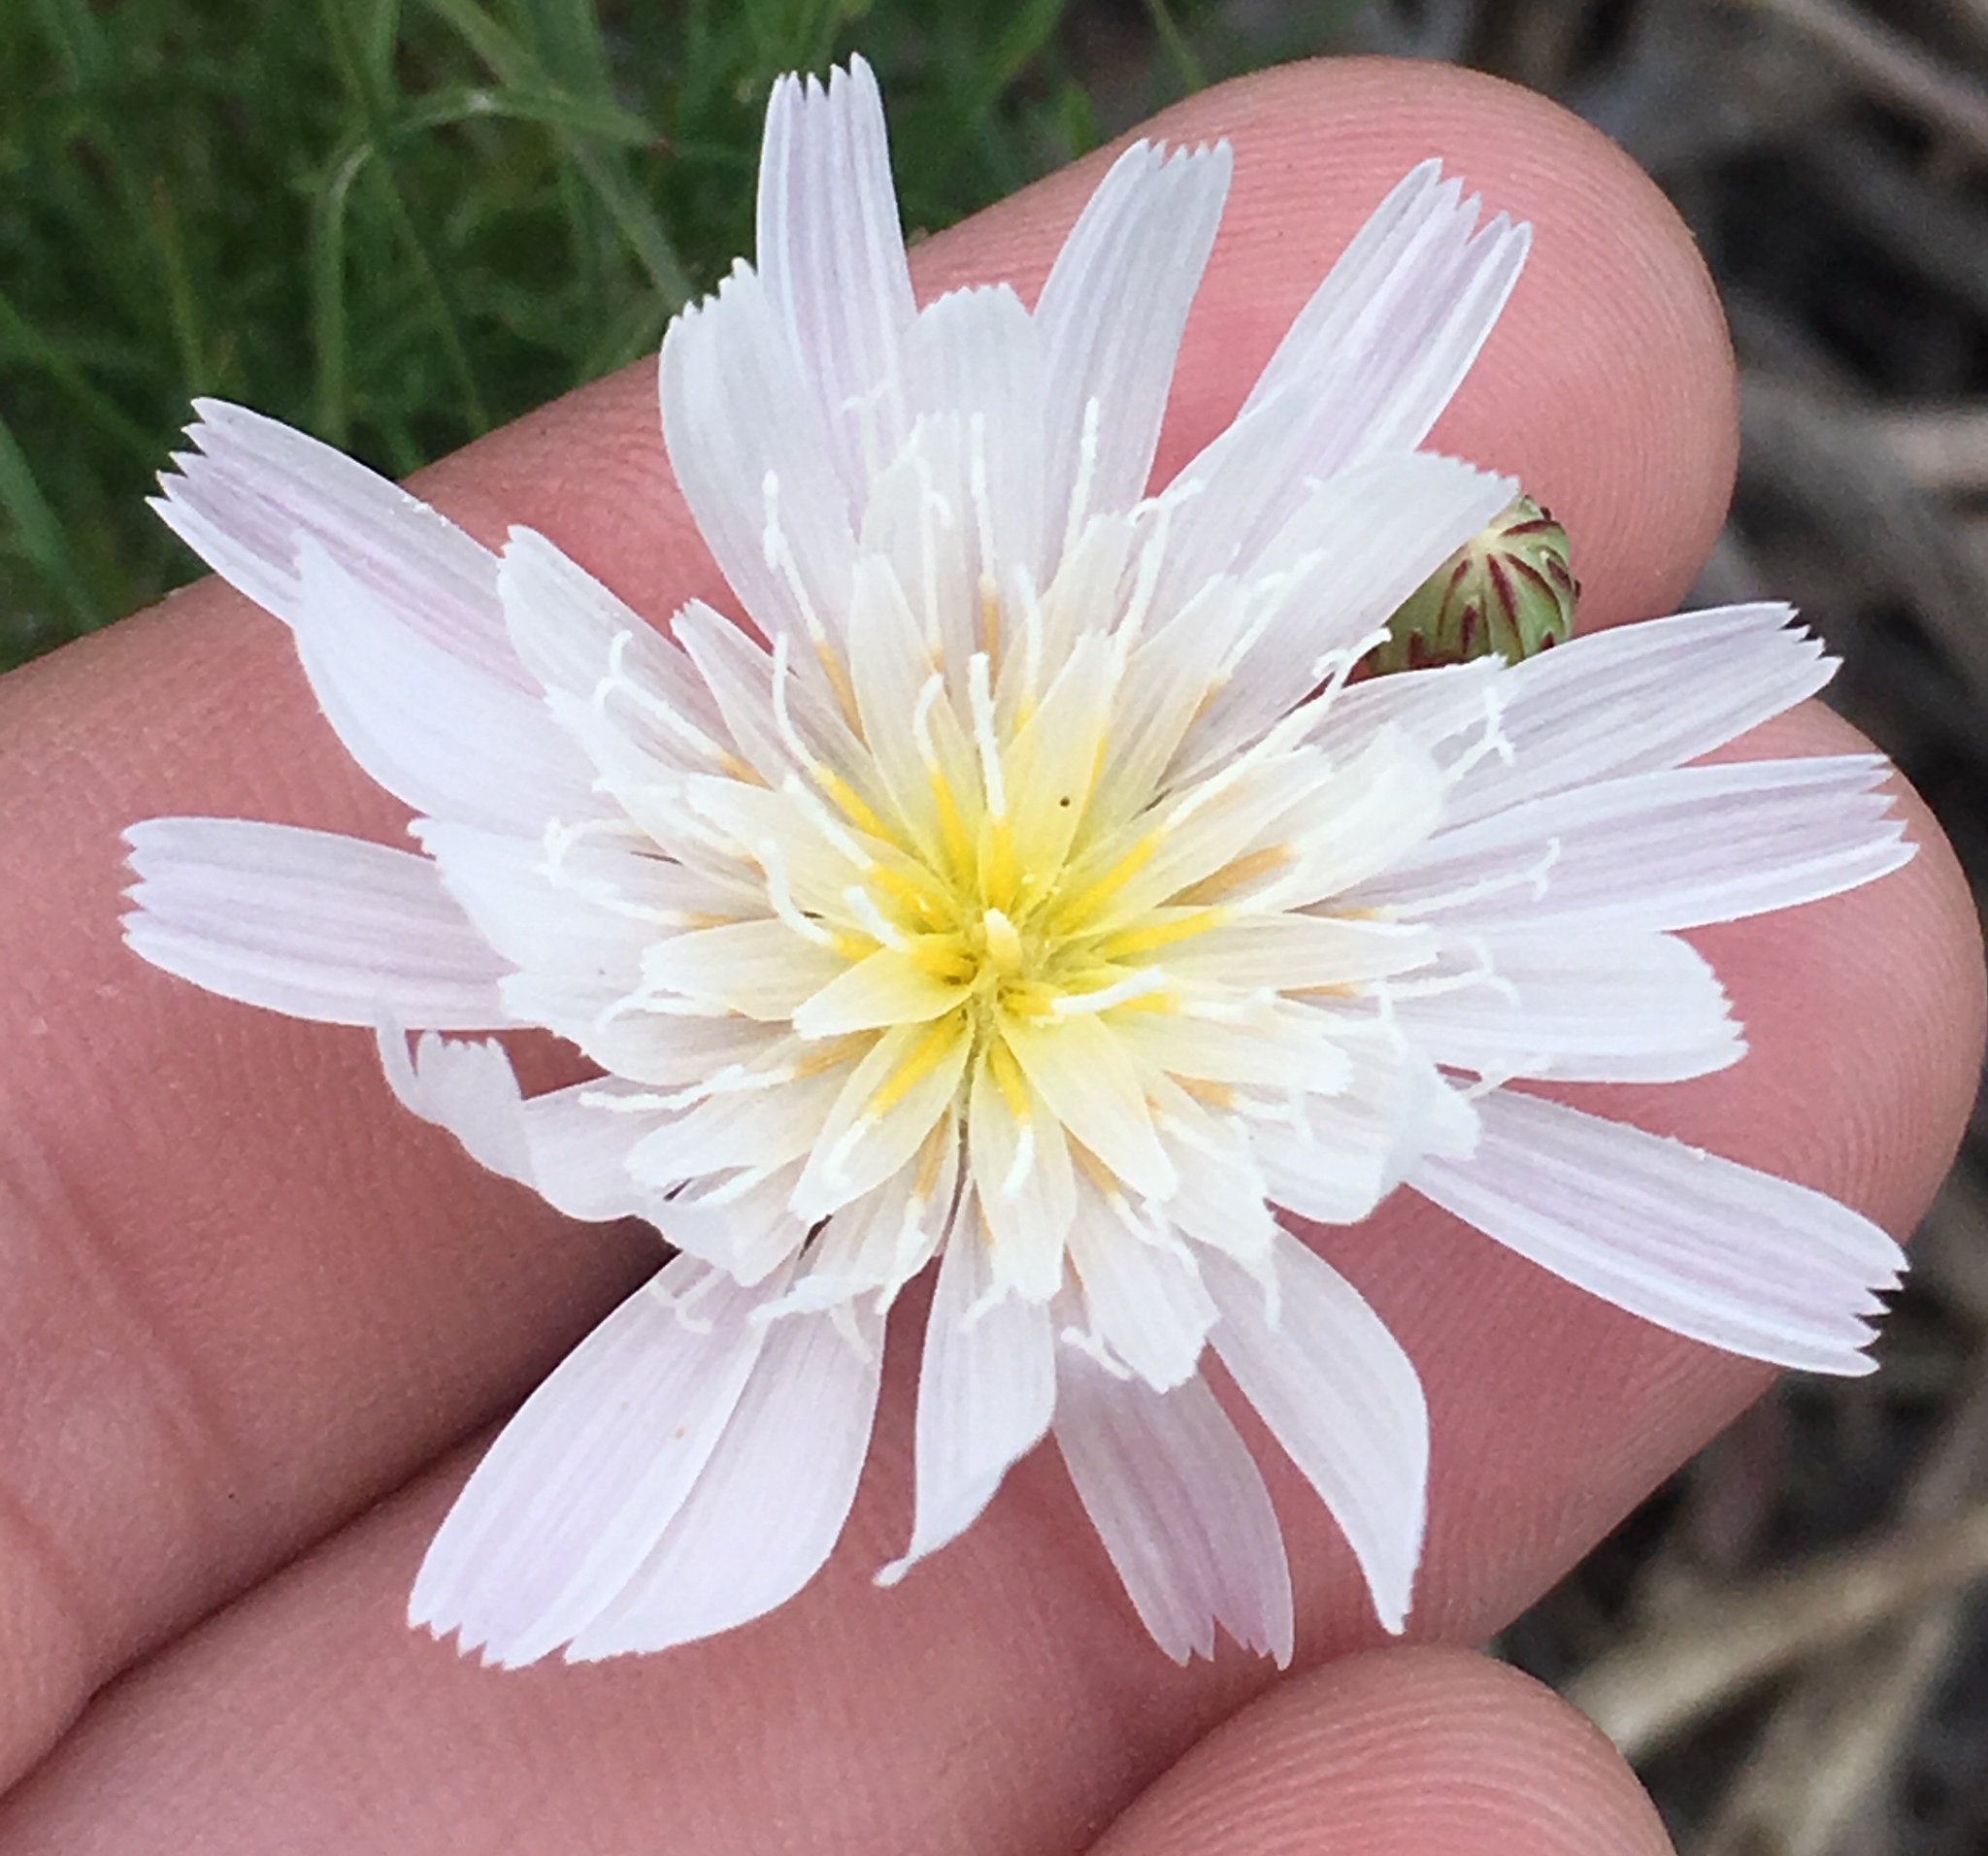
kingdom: Plantae
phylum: Tracheophyta
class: Magnoliopsida
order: Asterales
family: Asteraceae
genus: Malacothrix
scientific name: Malacothrix saxatilis
